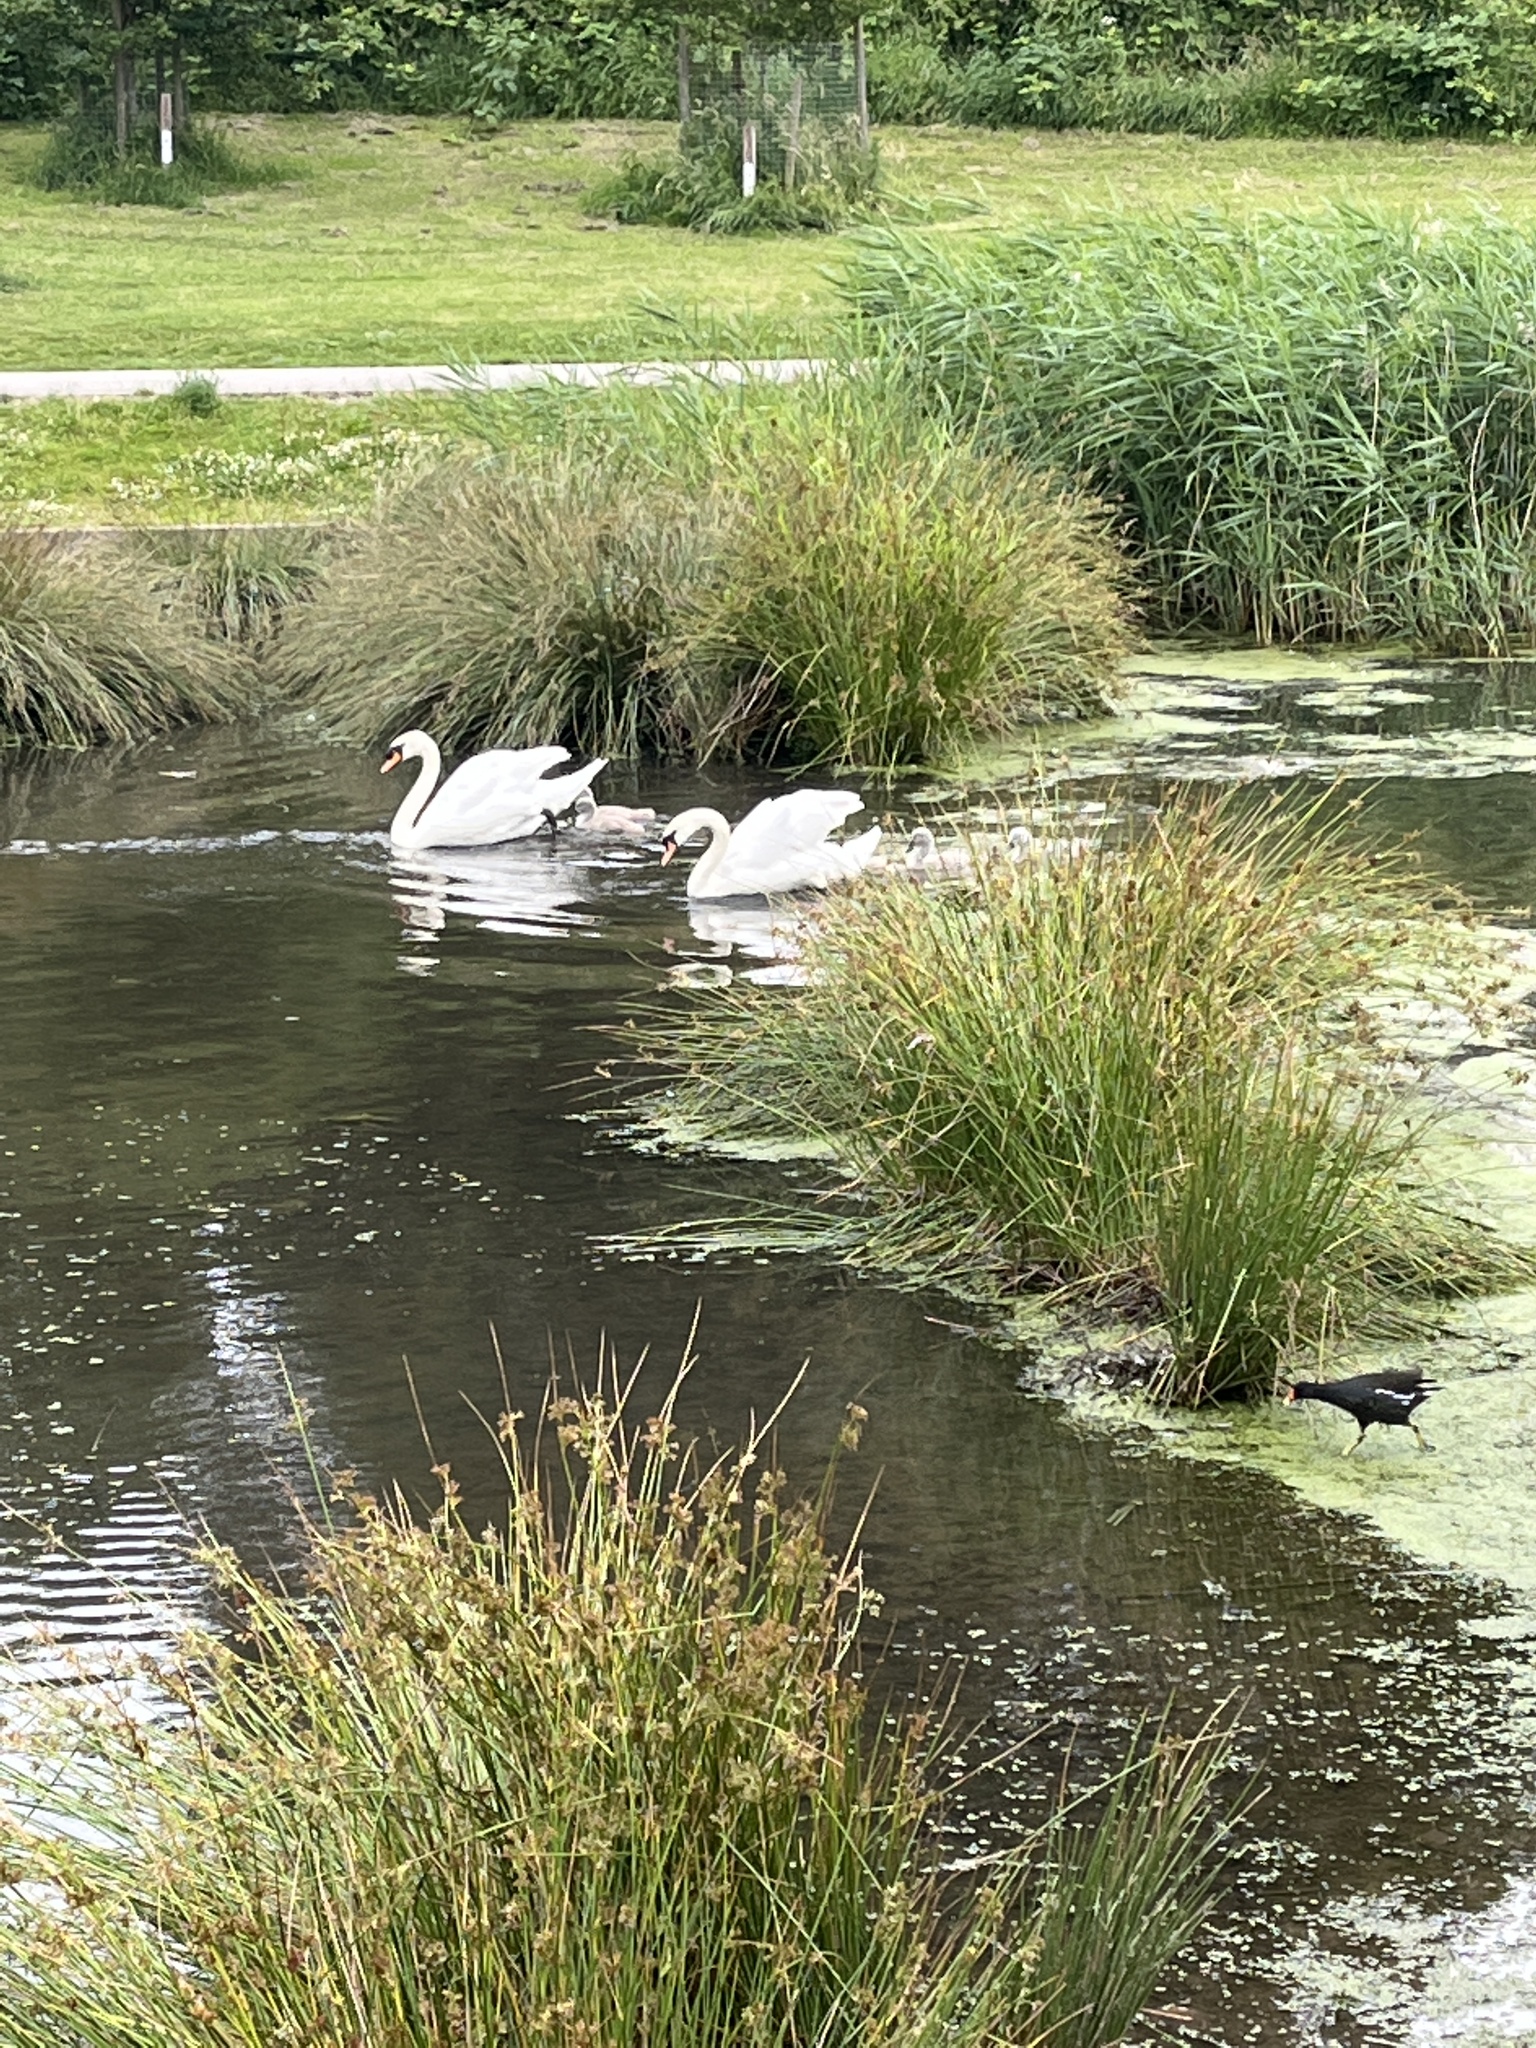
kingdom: Animalia
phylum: Chordata
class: Aves
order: Anseriformes
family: Anatidae
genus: Cygnus
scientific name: Cygnus olor
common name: Mute swan
